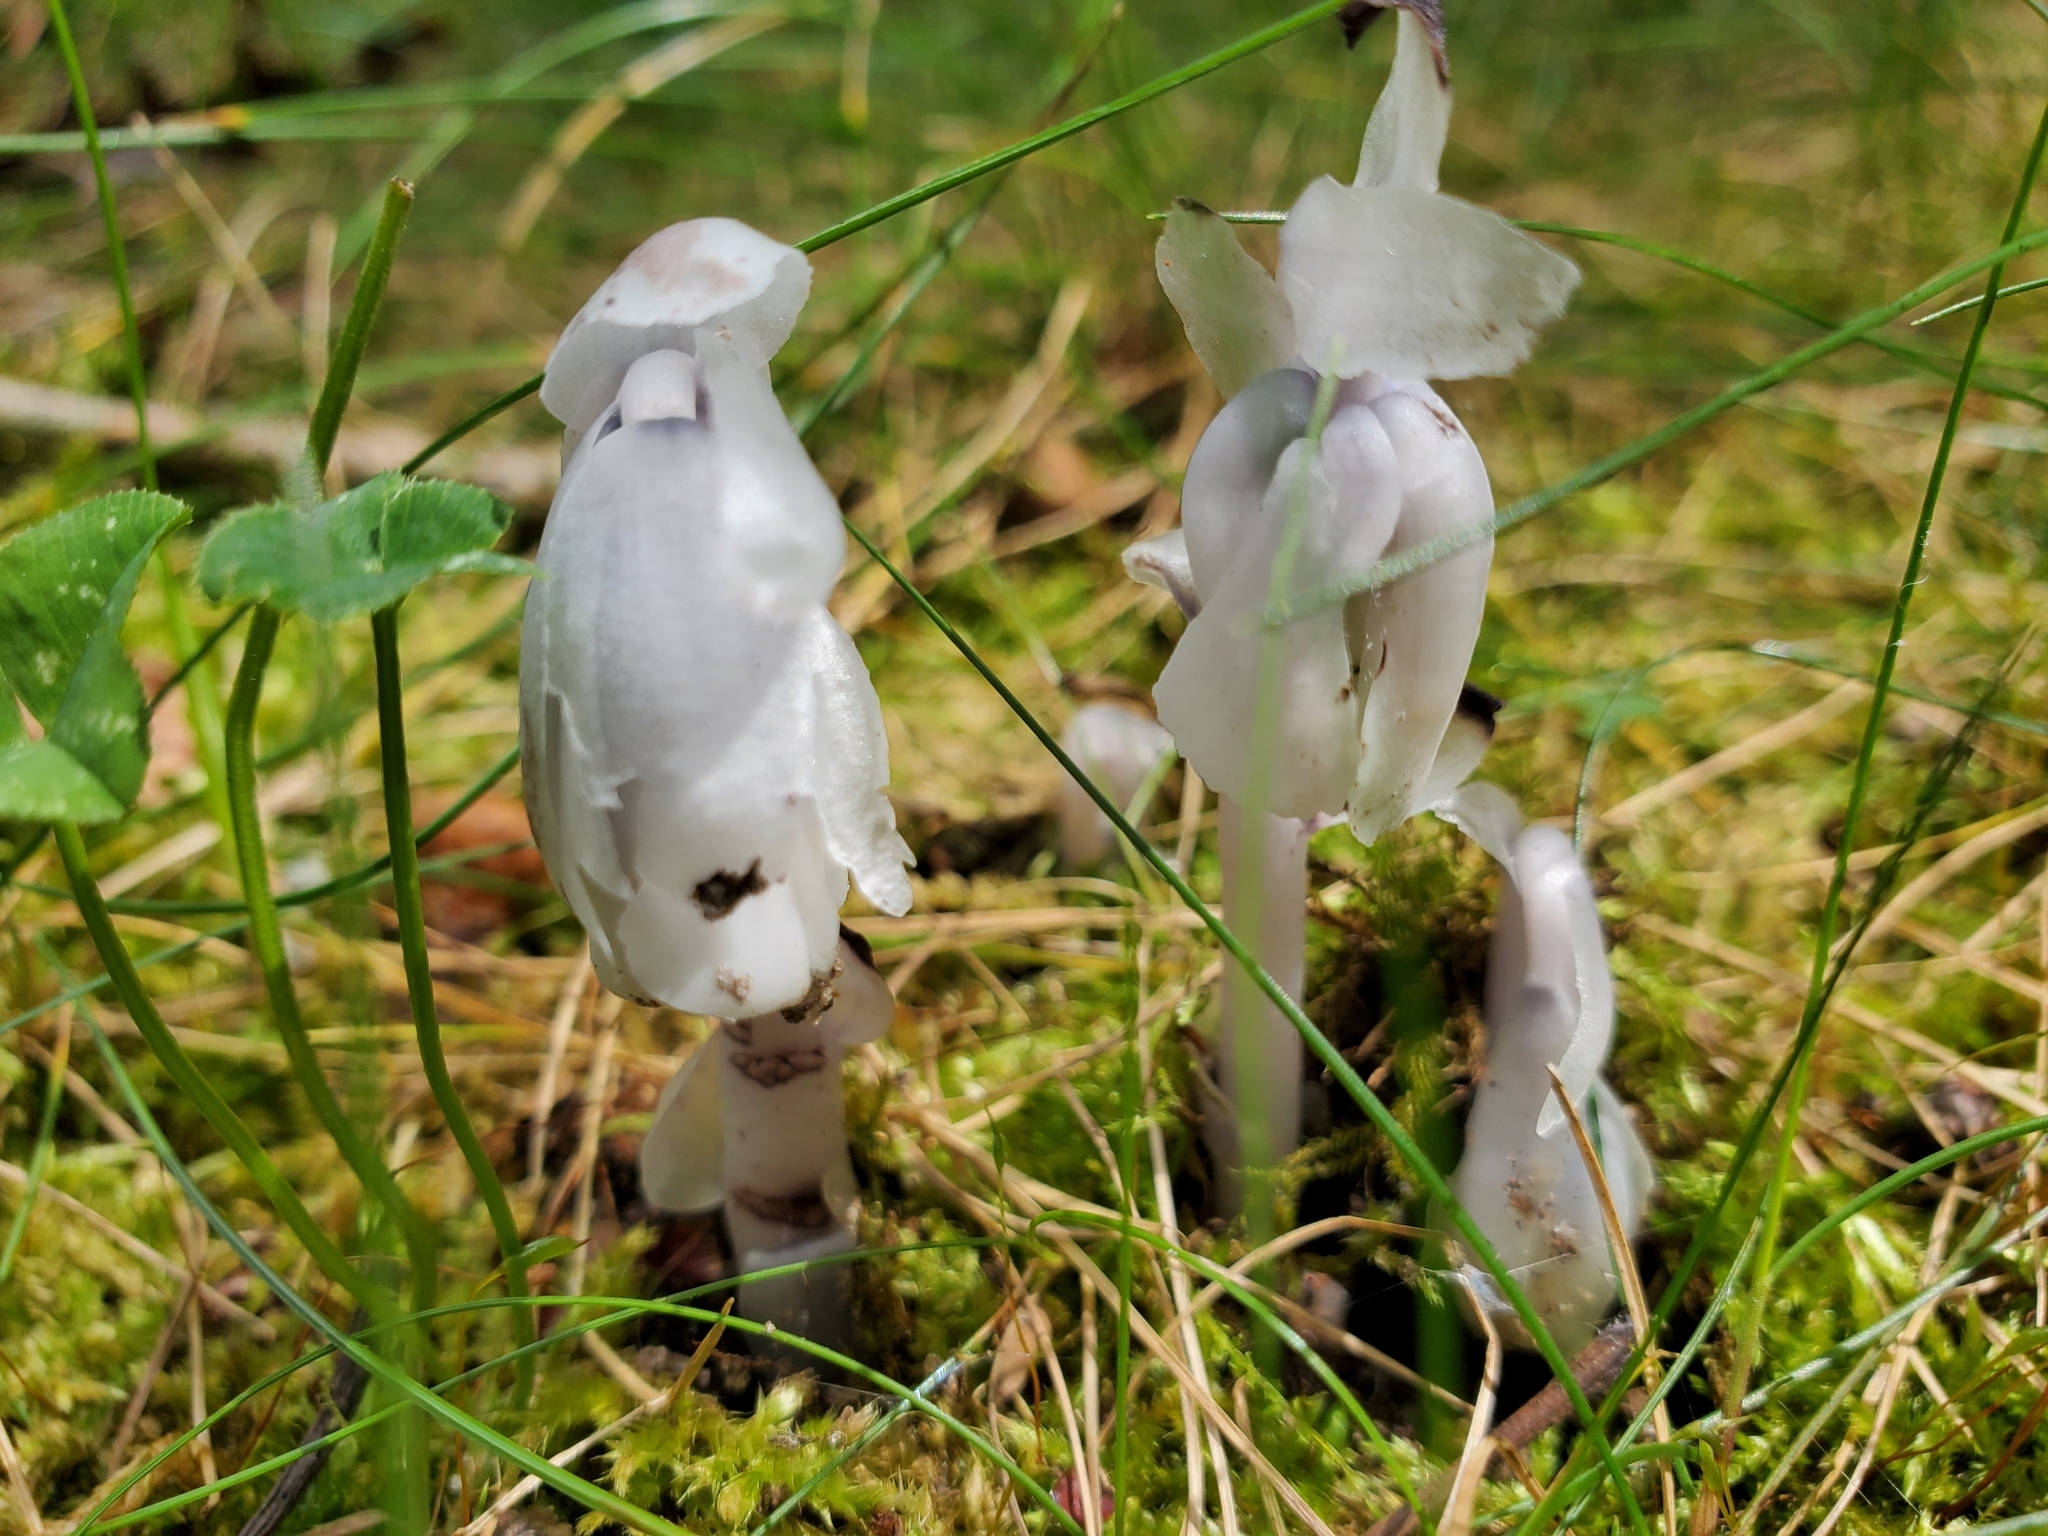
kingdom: Plantae
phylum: Tracheophyta
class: Magnoliopsida
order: Ericales
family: Ericaceae
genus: Monotropa
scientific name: Monotropa uniflora
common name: Convulsion root
